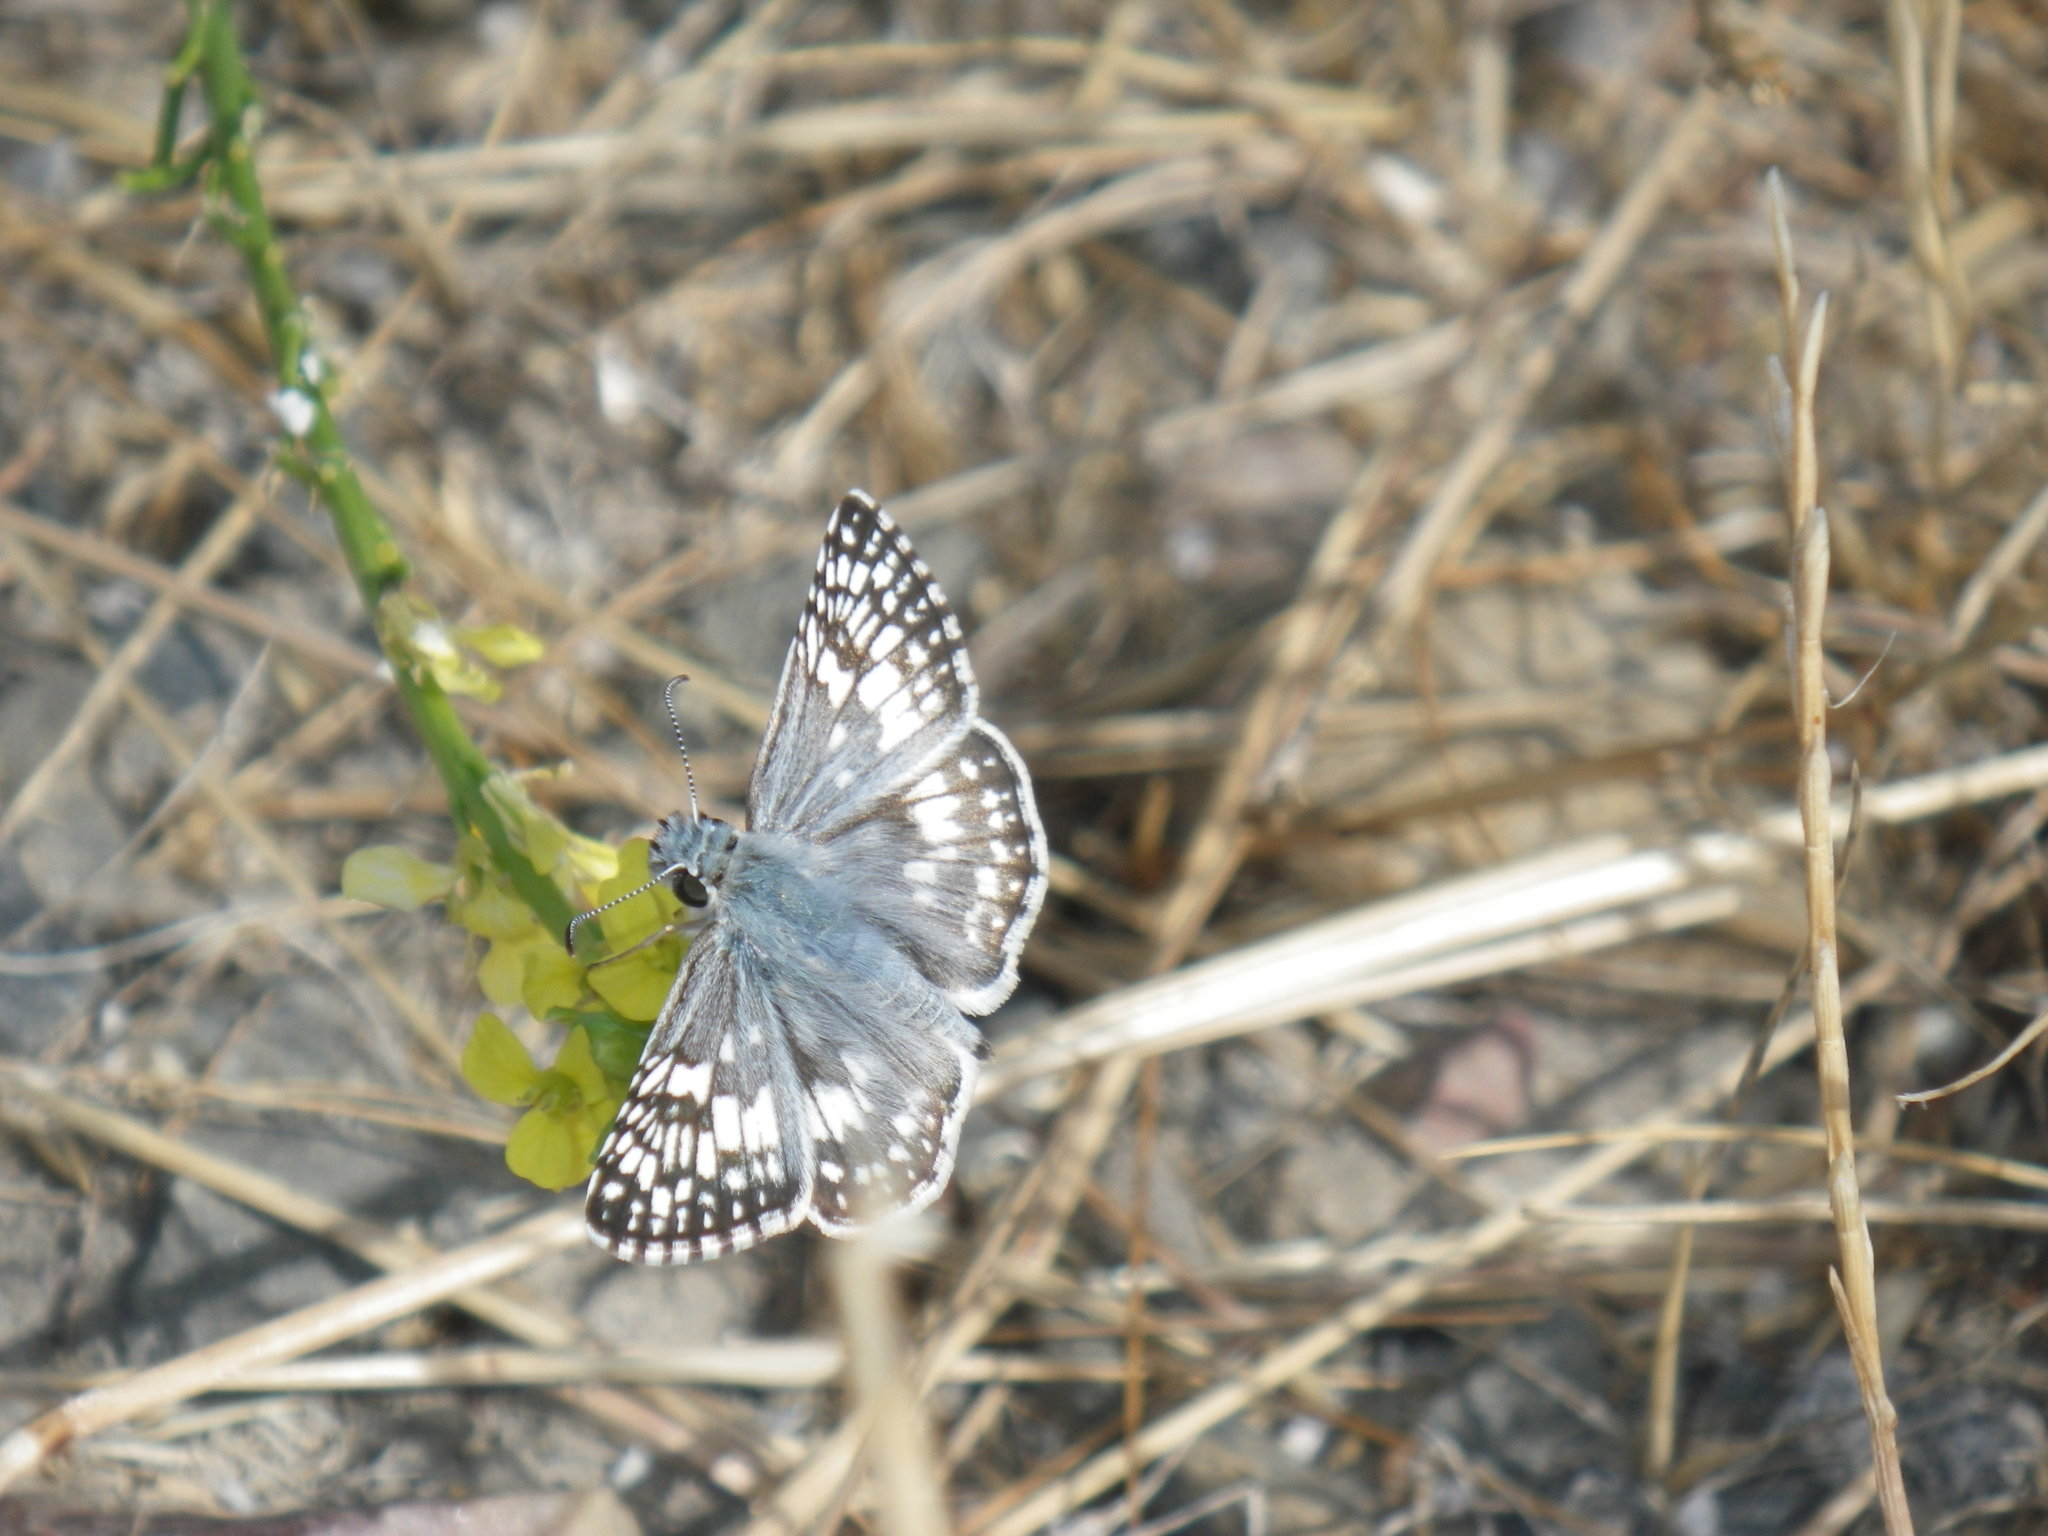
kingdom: Animalia
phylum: Arthropoda
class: Insecta
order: Lepidoptera
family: Hesperiidae
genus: Burnsius
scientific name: Burnsius communis
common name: Common checkered-skipper
